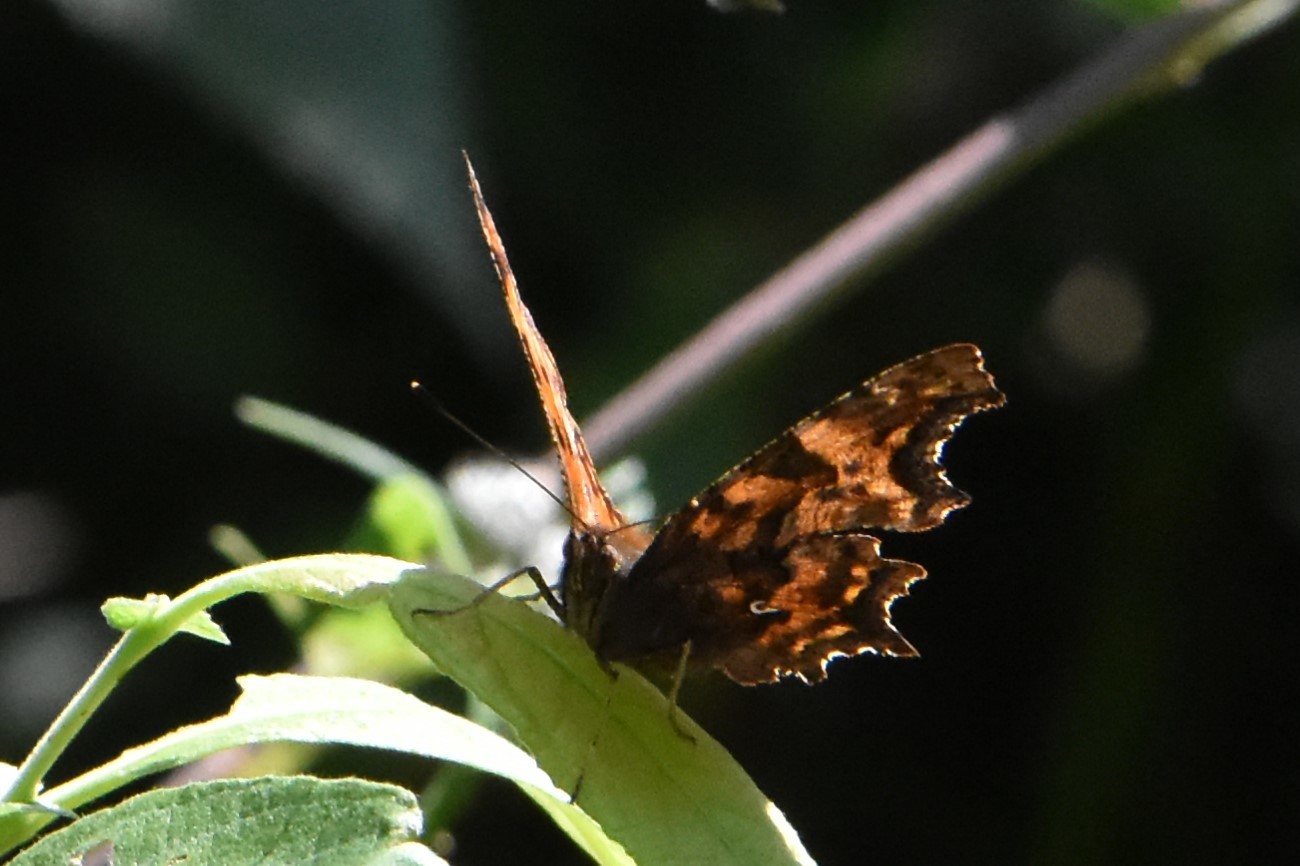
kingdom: Animalia
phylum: Arthropoda
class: Insecta
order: Lepidoptera
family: Nymphalidae
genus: Polygonia
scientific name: Polygonia c-album
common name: Comma
